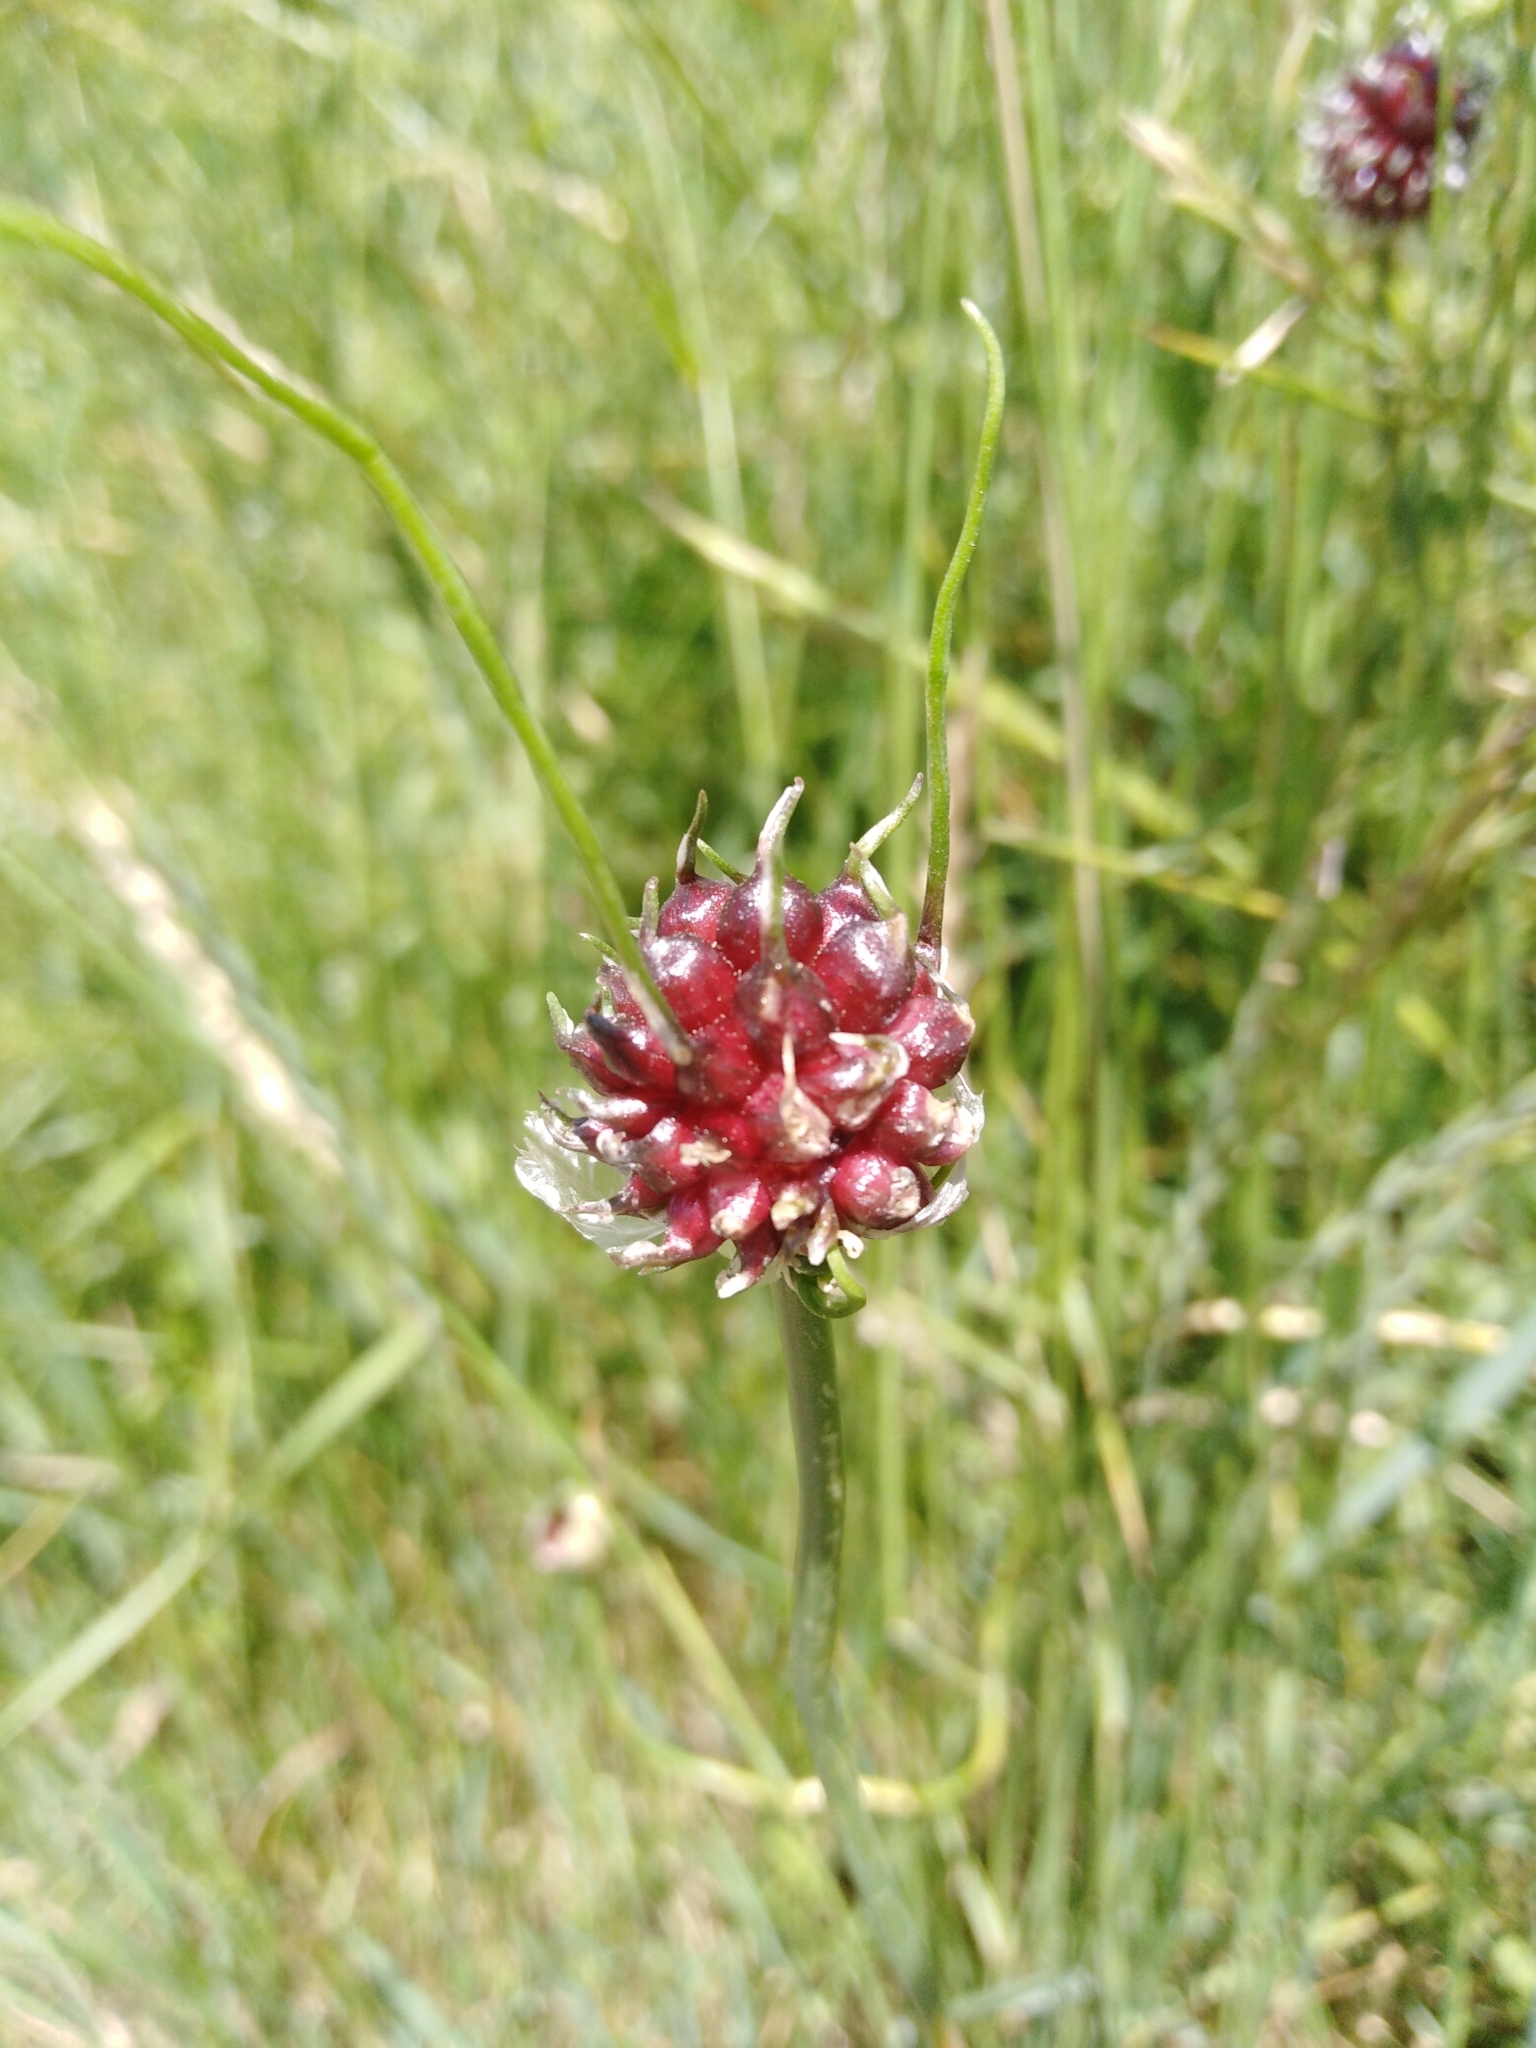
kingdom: Plantae
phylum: Tracheophyta
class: Liliopsida
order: Asparagales
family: Amaryllidaceae
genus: Allium
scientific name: Allium vineale
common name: Crow garlic
